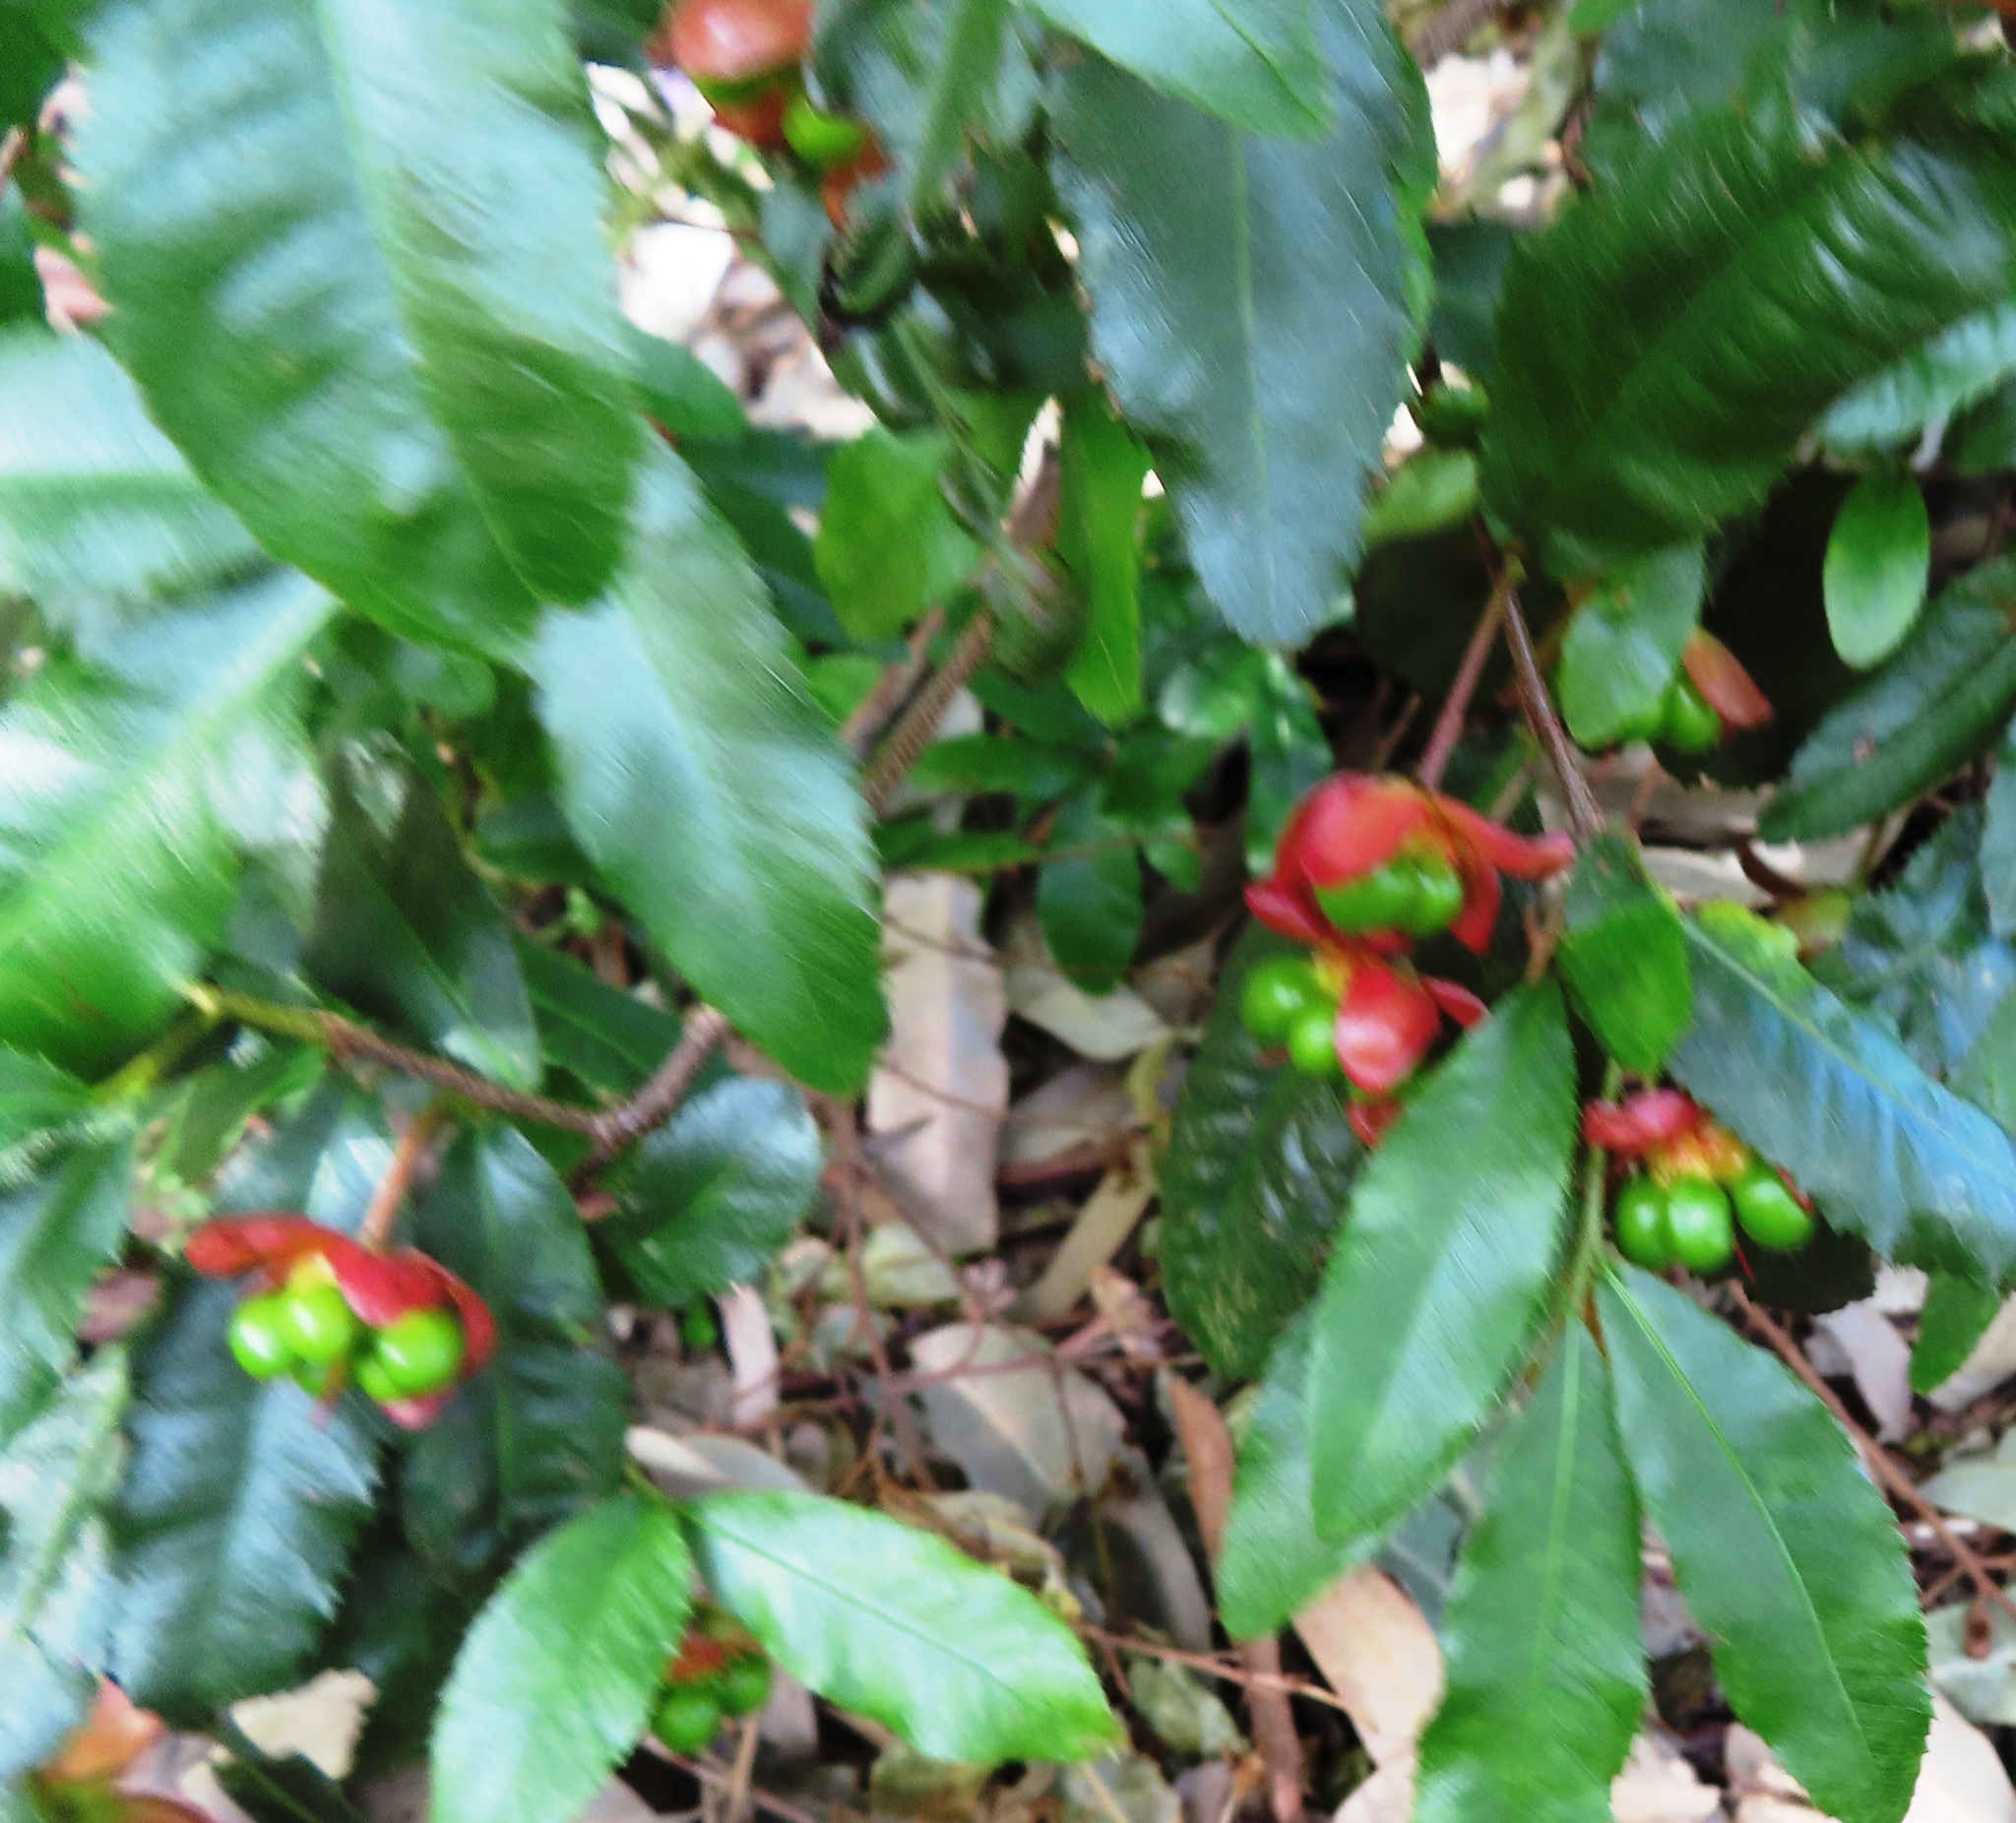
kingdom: Plantae
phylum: Tracheophyta
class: Magnoliopsida
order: Malpighiales
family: Ochnaceae
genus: Ochna
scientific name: Ochna serrulata
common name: Mickey mouse plant
